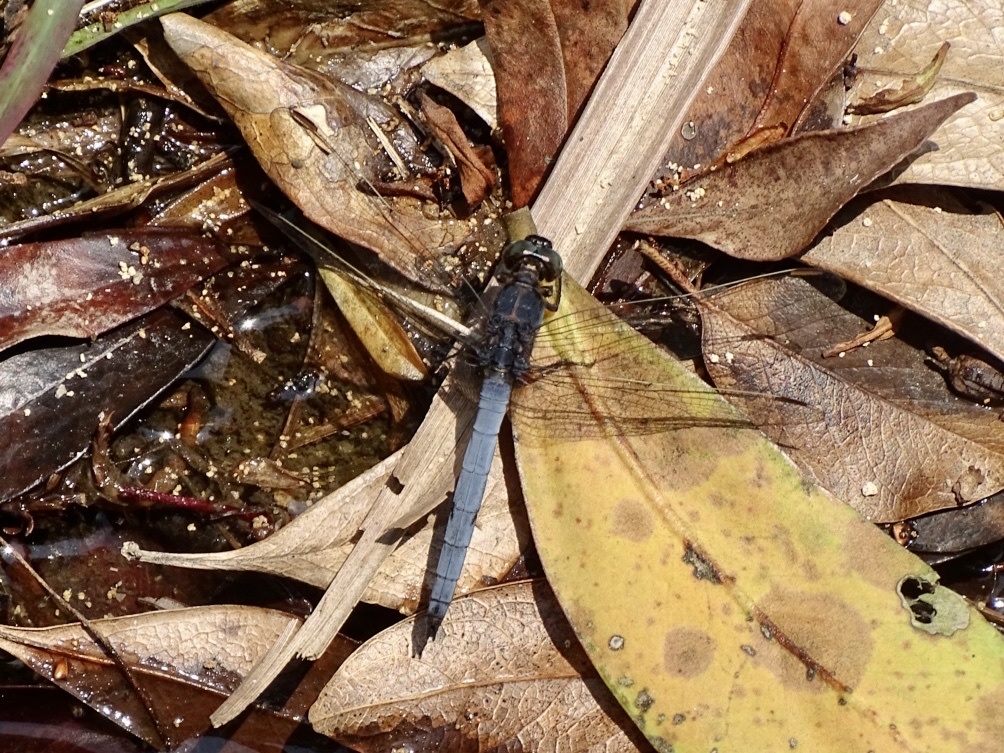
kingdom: Animalia
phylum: Arthropoda
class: Insecta
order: Odonata
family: Libellulidae
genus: Orthetrum
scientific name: Orthetrum glaucum
